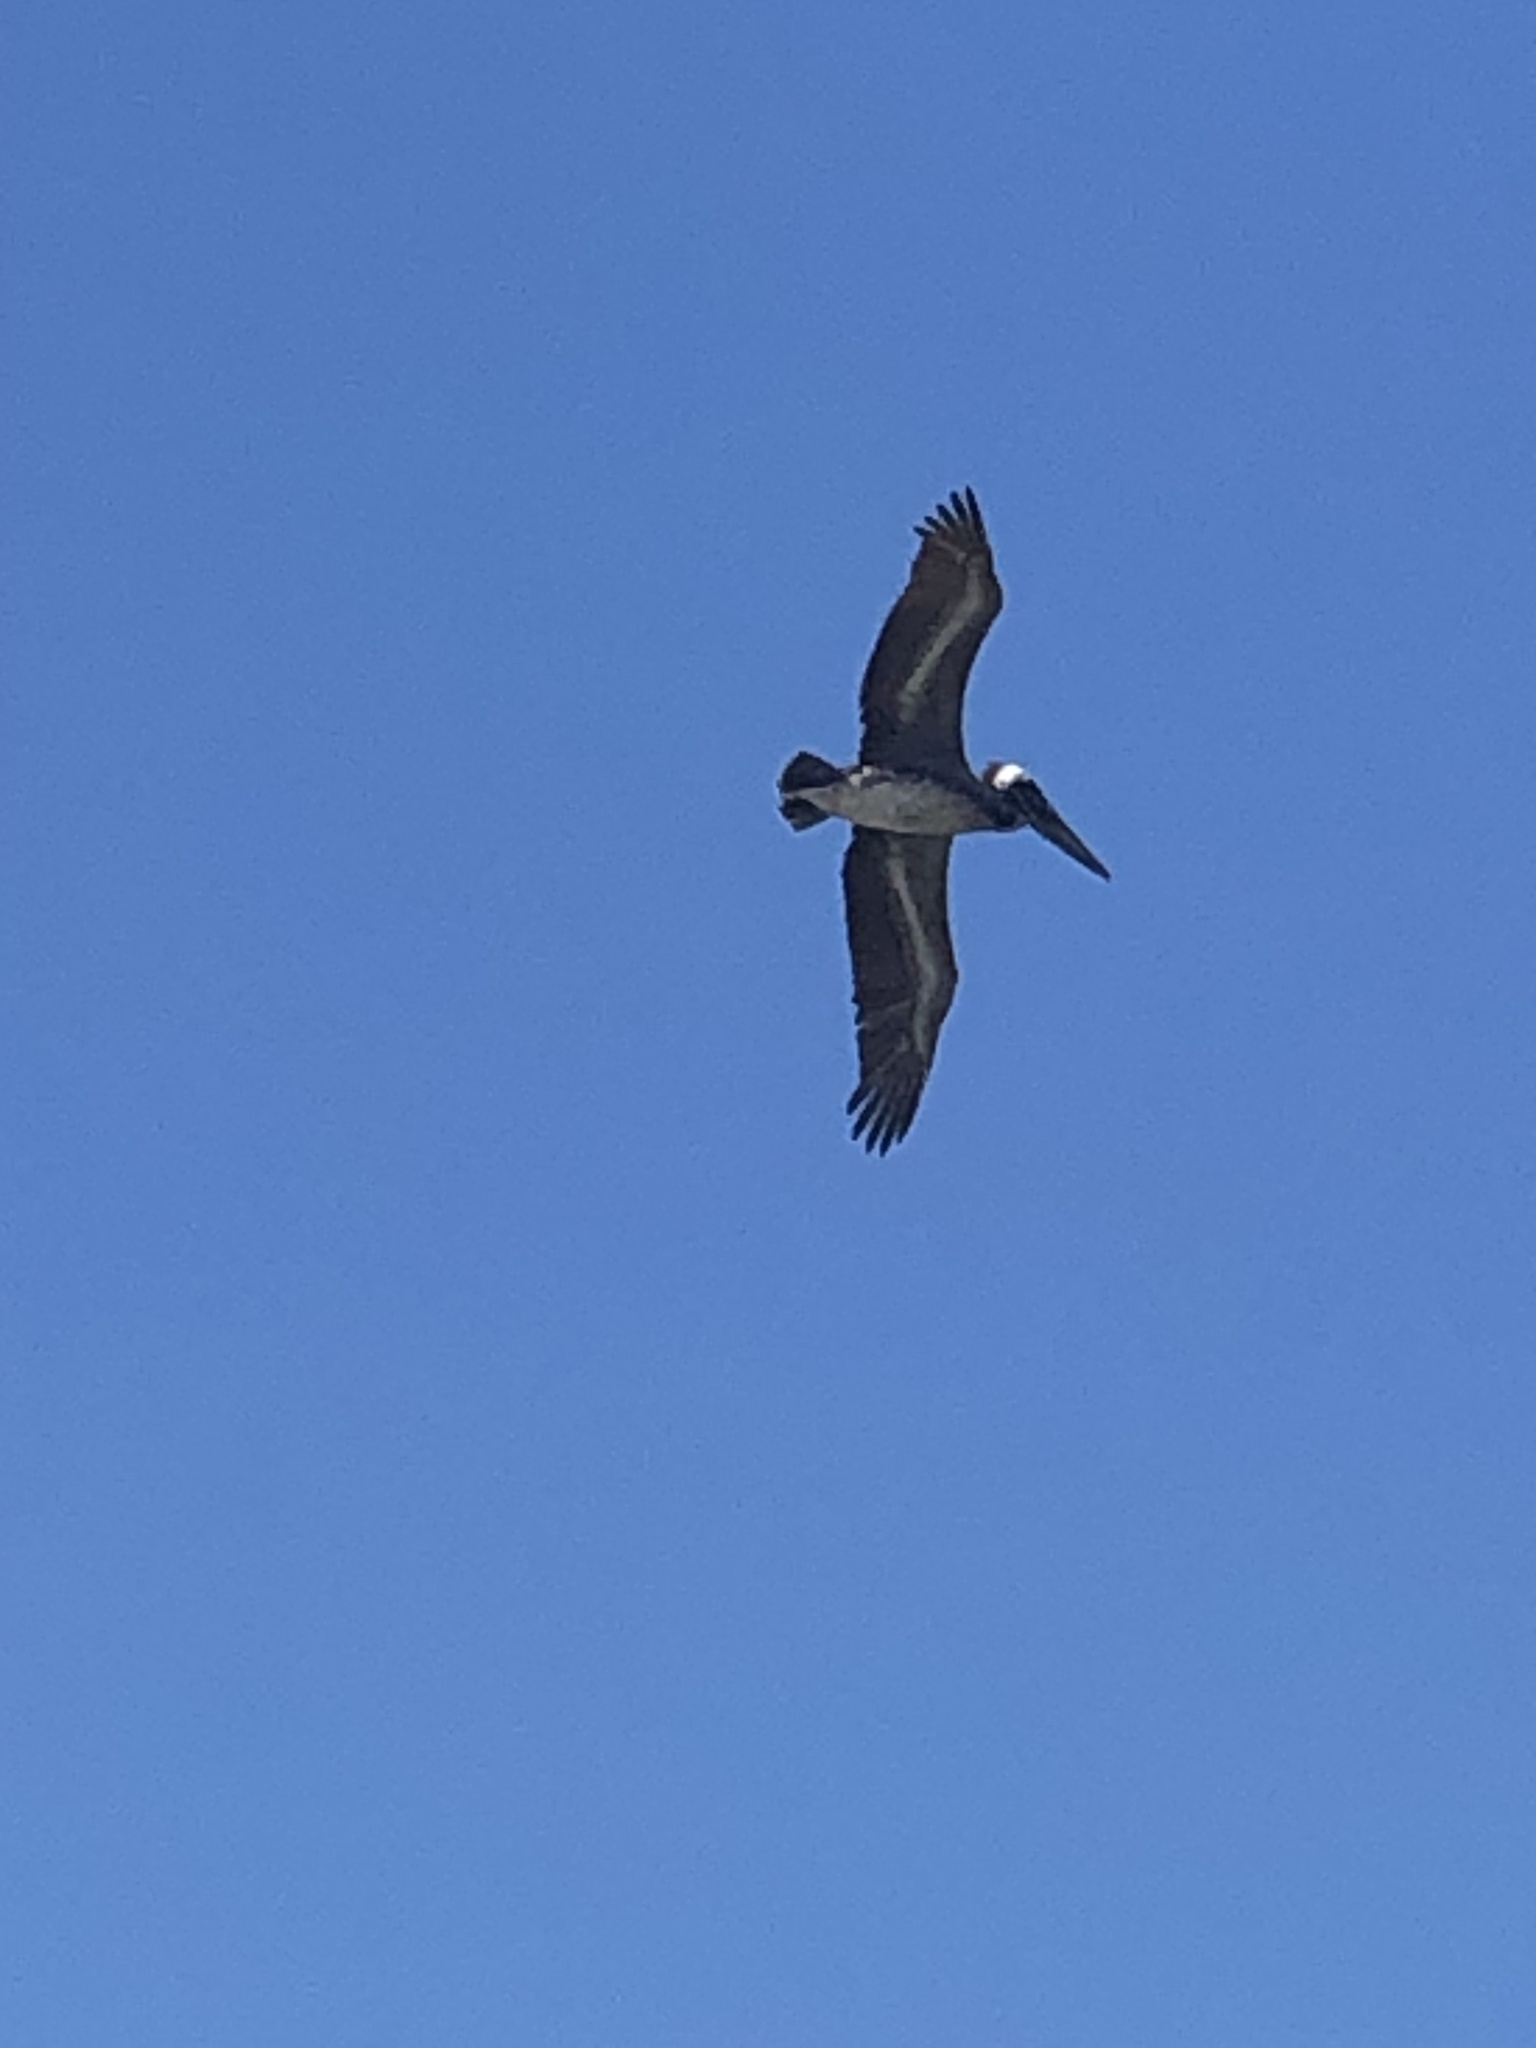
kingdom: Animalia
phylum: Chordata
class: Aves
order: Pelecaniformes
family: Pelecanidae
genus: Pelecanus
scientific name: Pelecanus occidentalis
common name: Brown pelican
